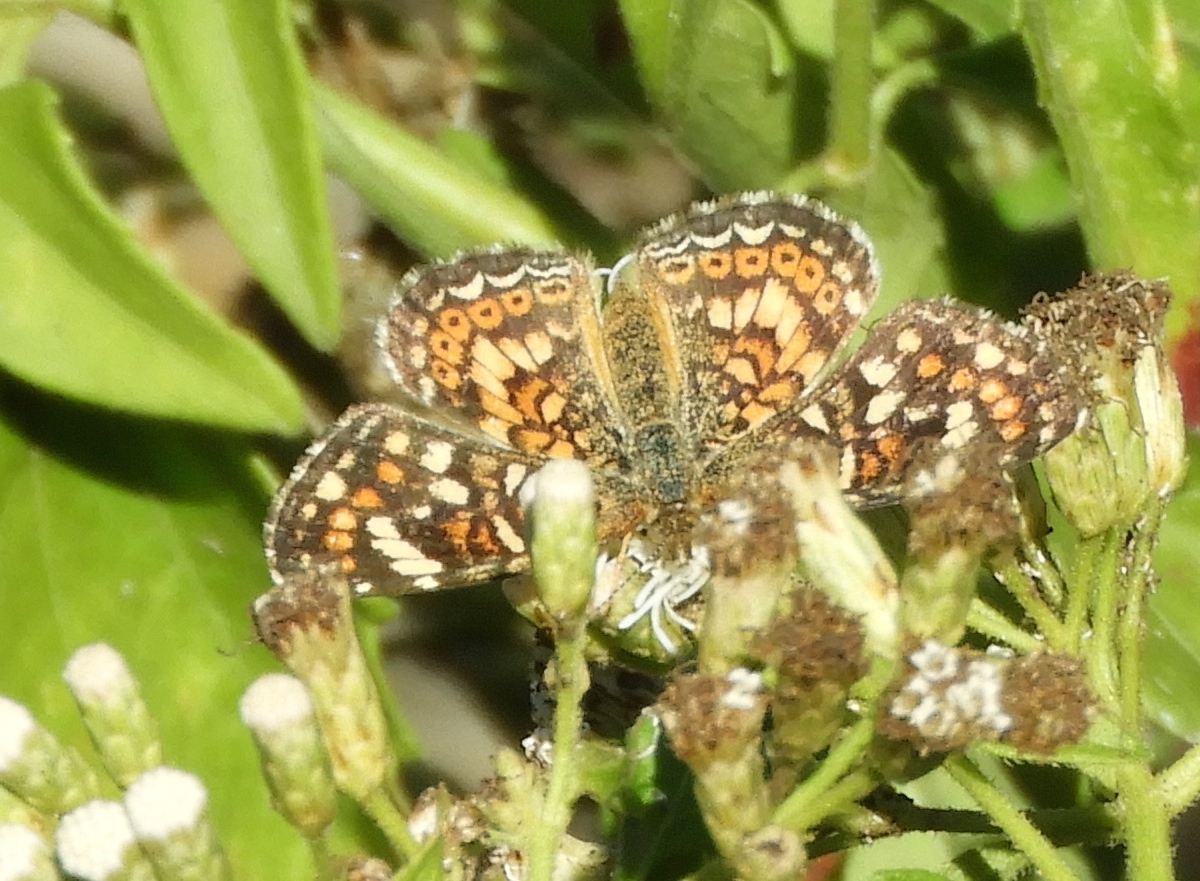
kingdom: Animalia
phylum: Arthropoda
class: Insecta
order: Lepidoptera
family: Nymphalidae
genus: Phyciodes
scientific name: Phyciodes picta
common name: Painted crescent
